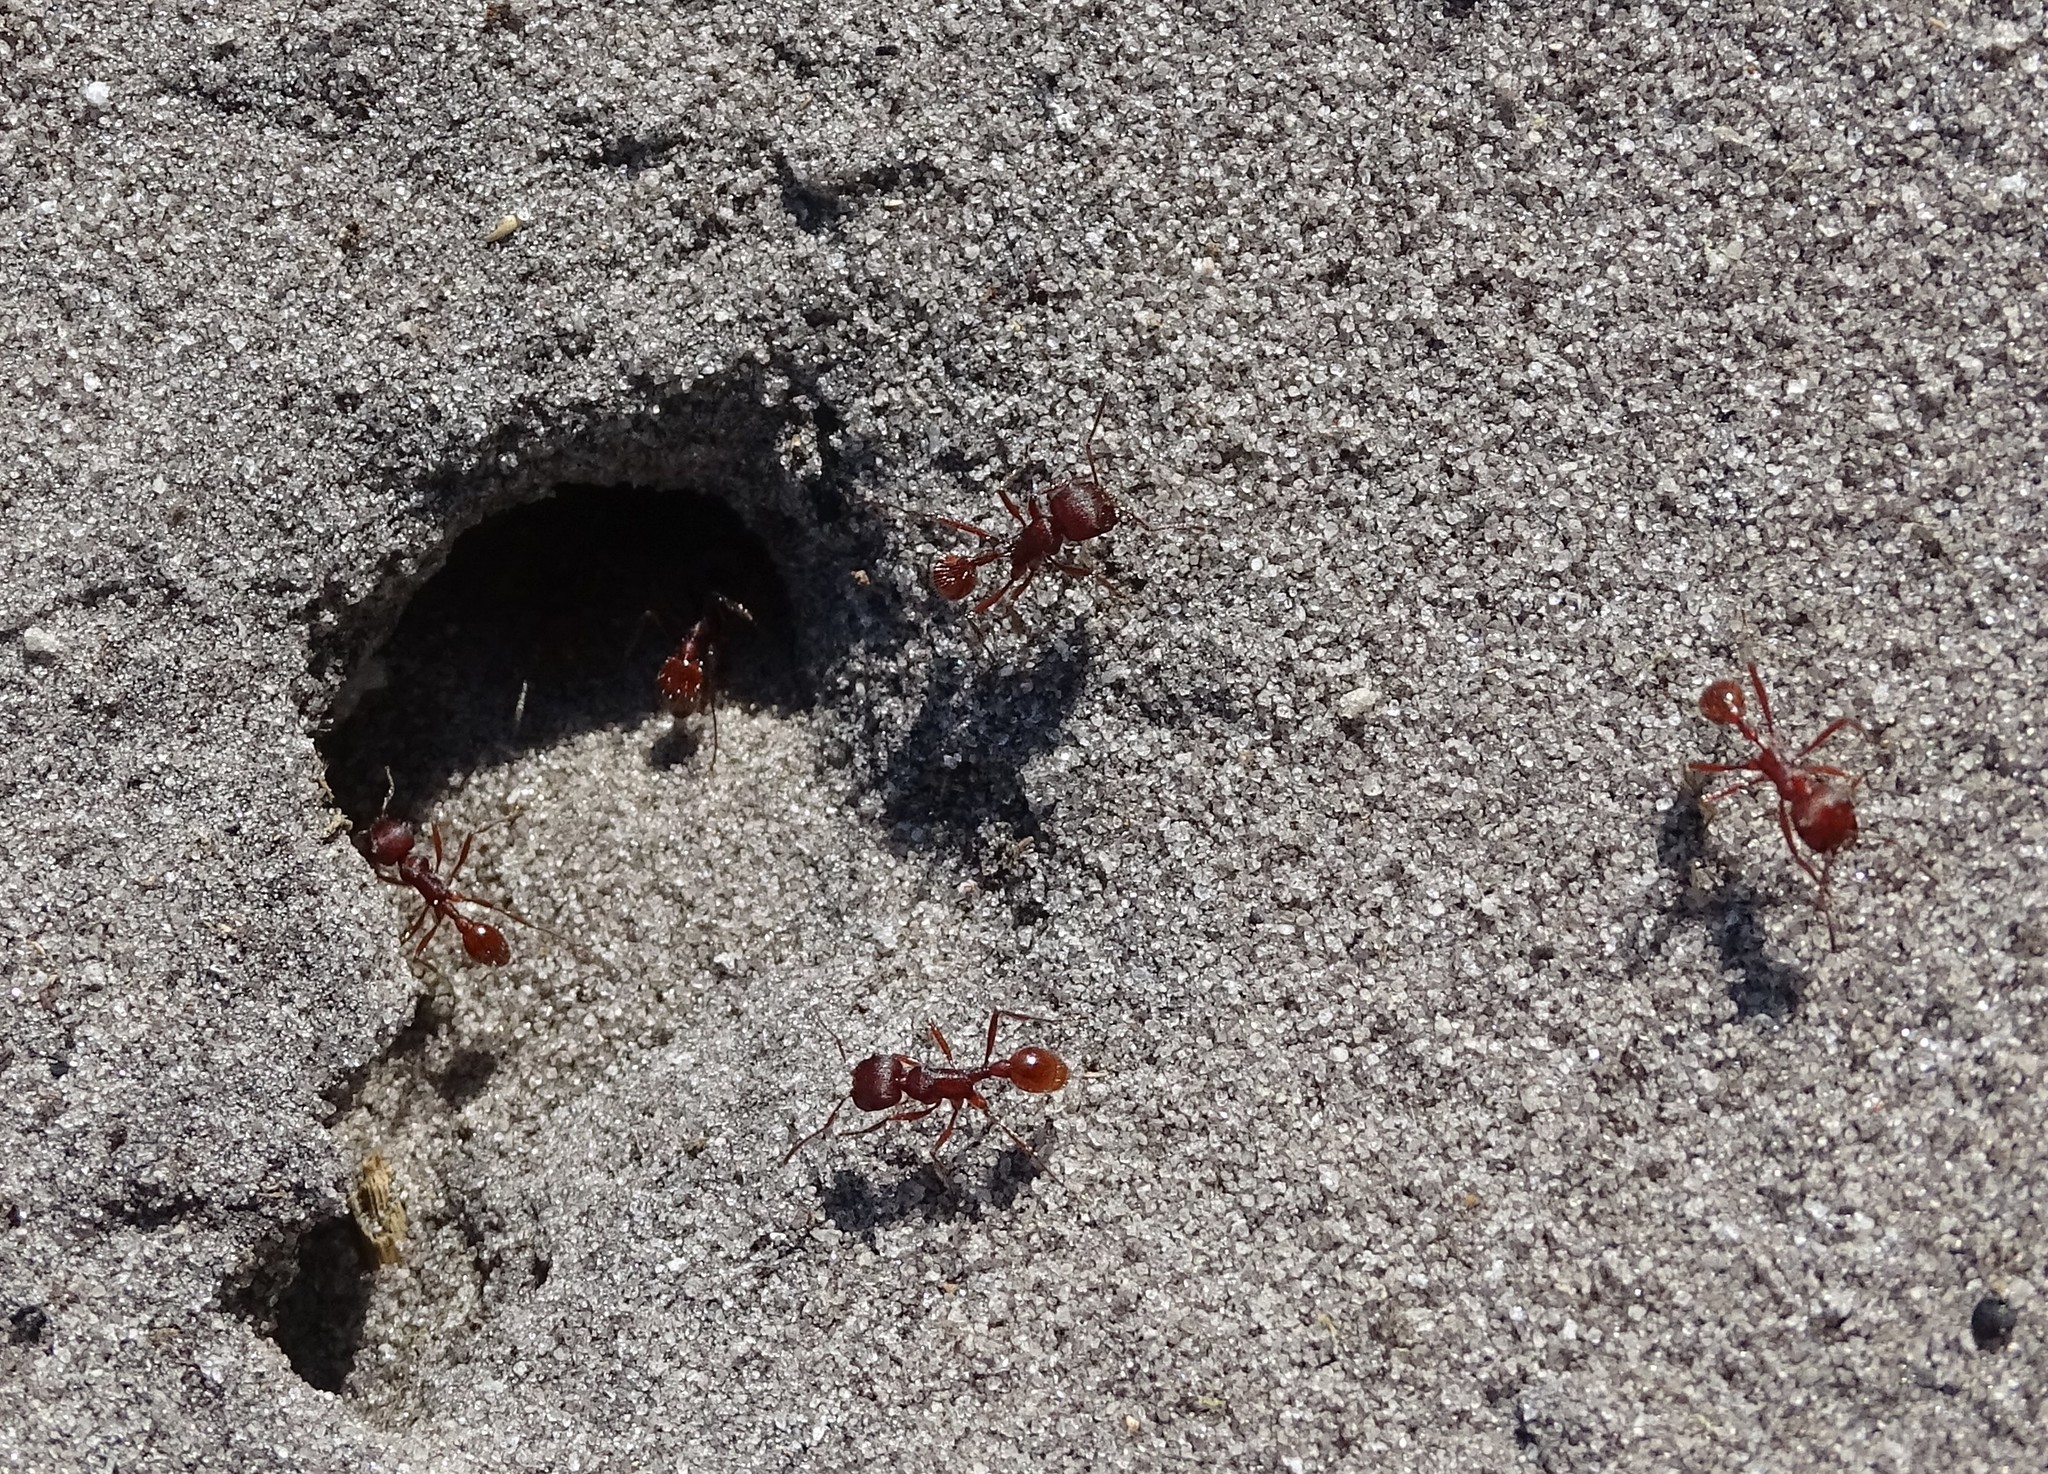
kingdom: Animalia
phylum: Arthropoda
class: Insecta
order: Hymenoptera
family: Formicidae
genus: Pogonomyrmex
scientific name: Pogonomyrmex badius
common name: Florida harvester ant
